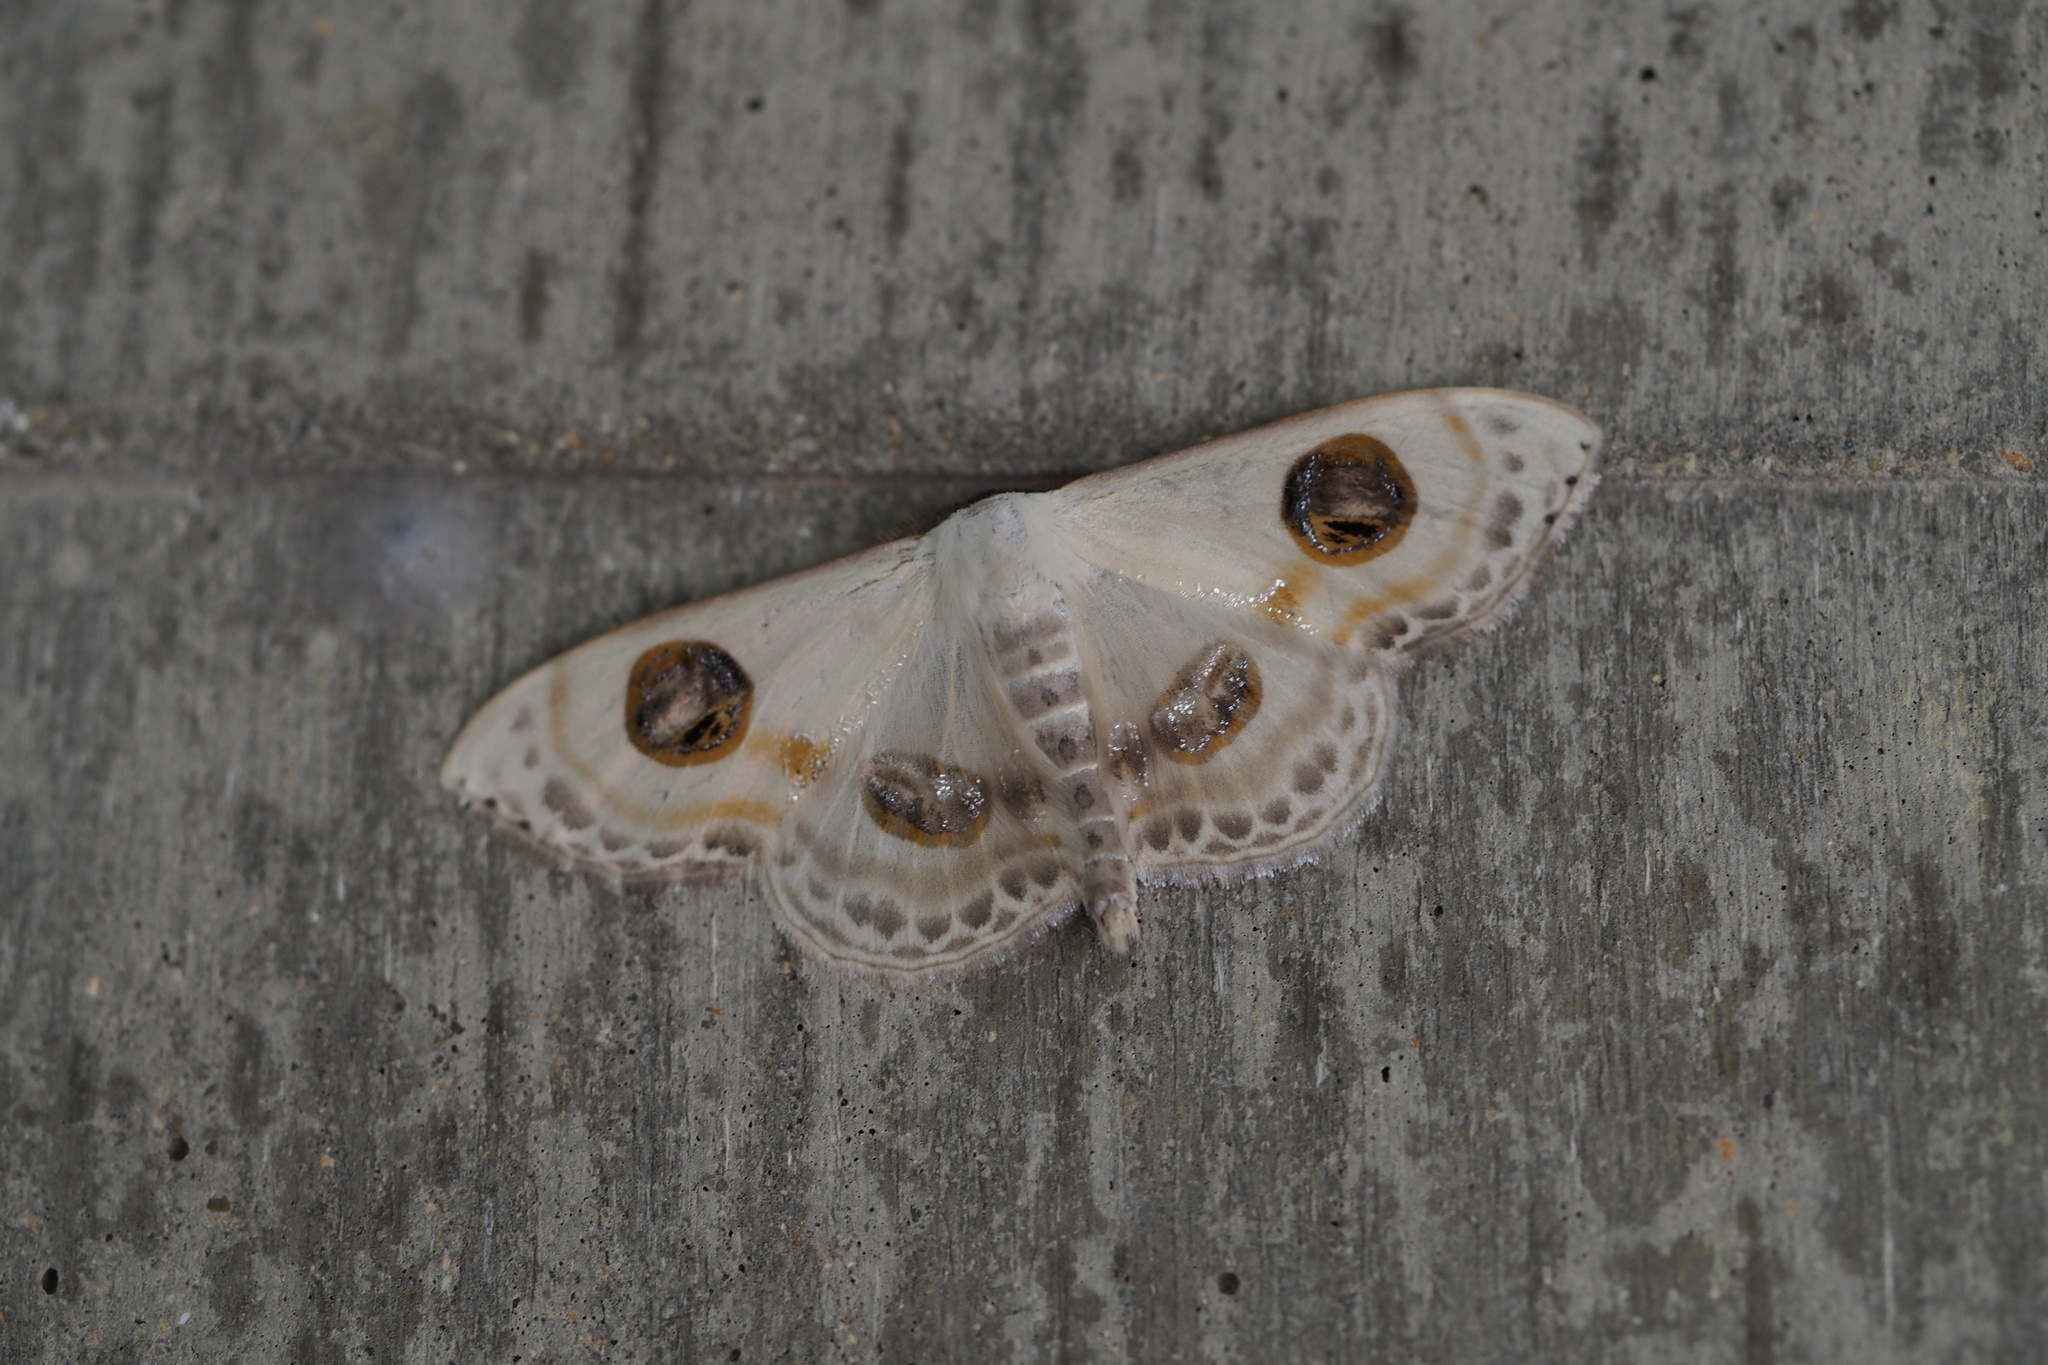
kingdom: Animalia
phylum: Arthropoda
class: Insecta
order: Lepidoptera
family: Geometridae
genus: Problepsis
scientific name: Problepsis albidior
